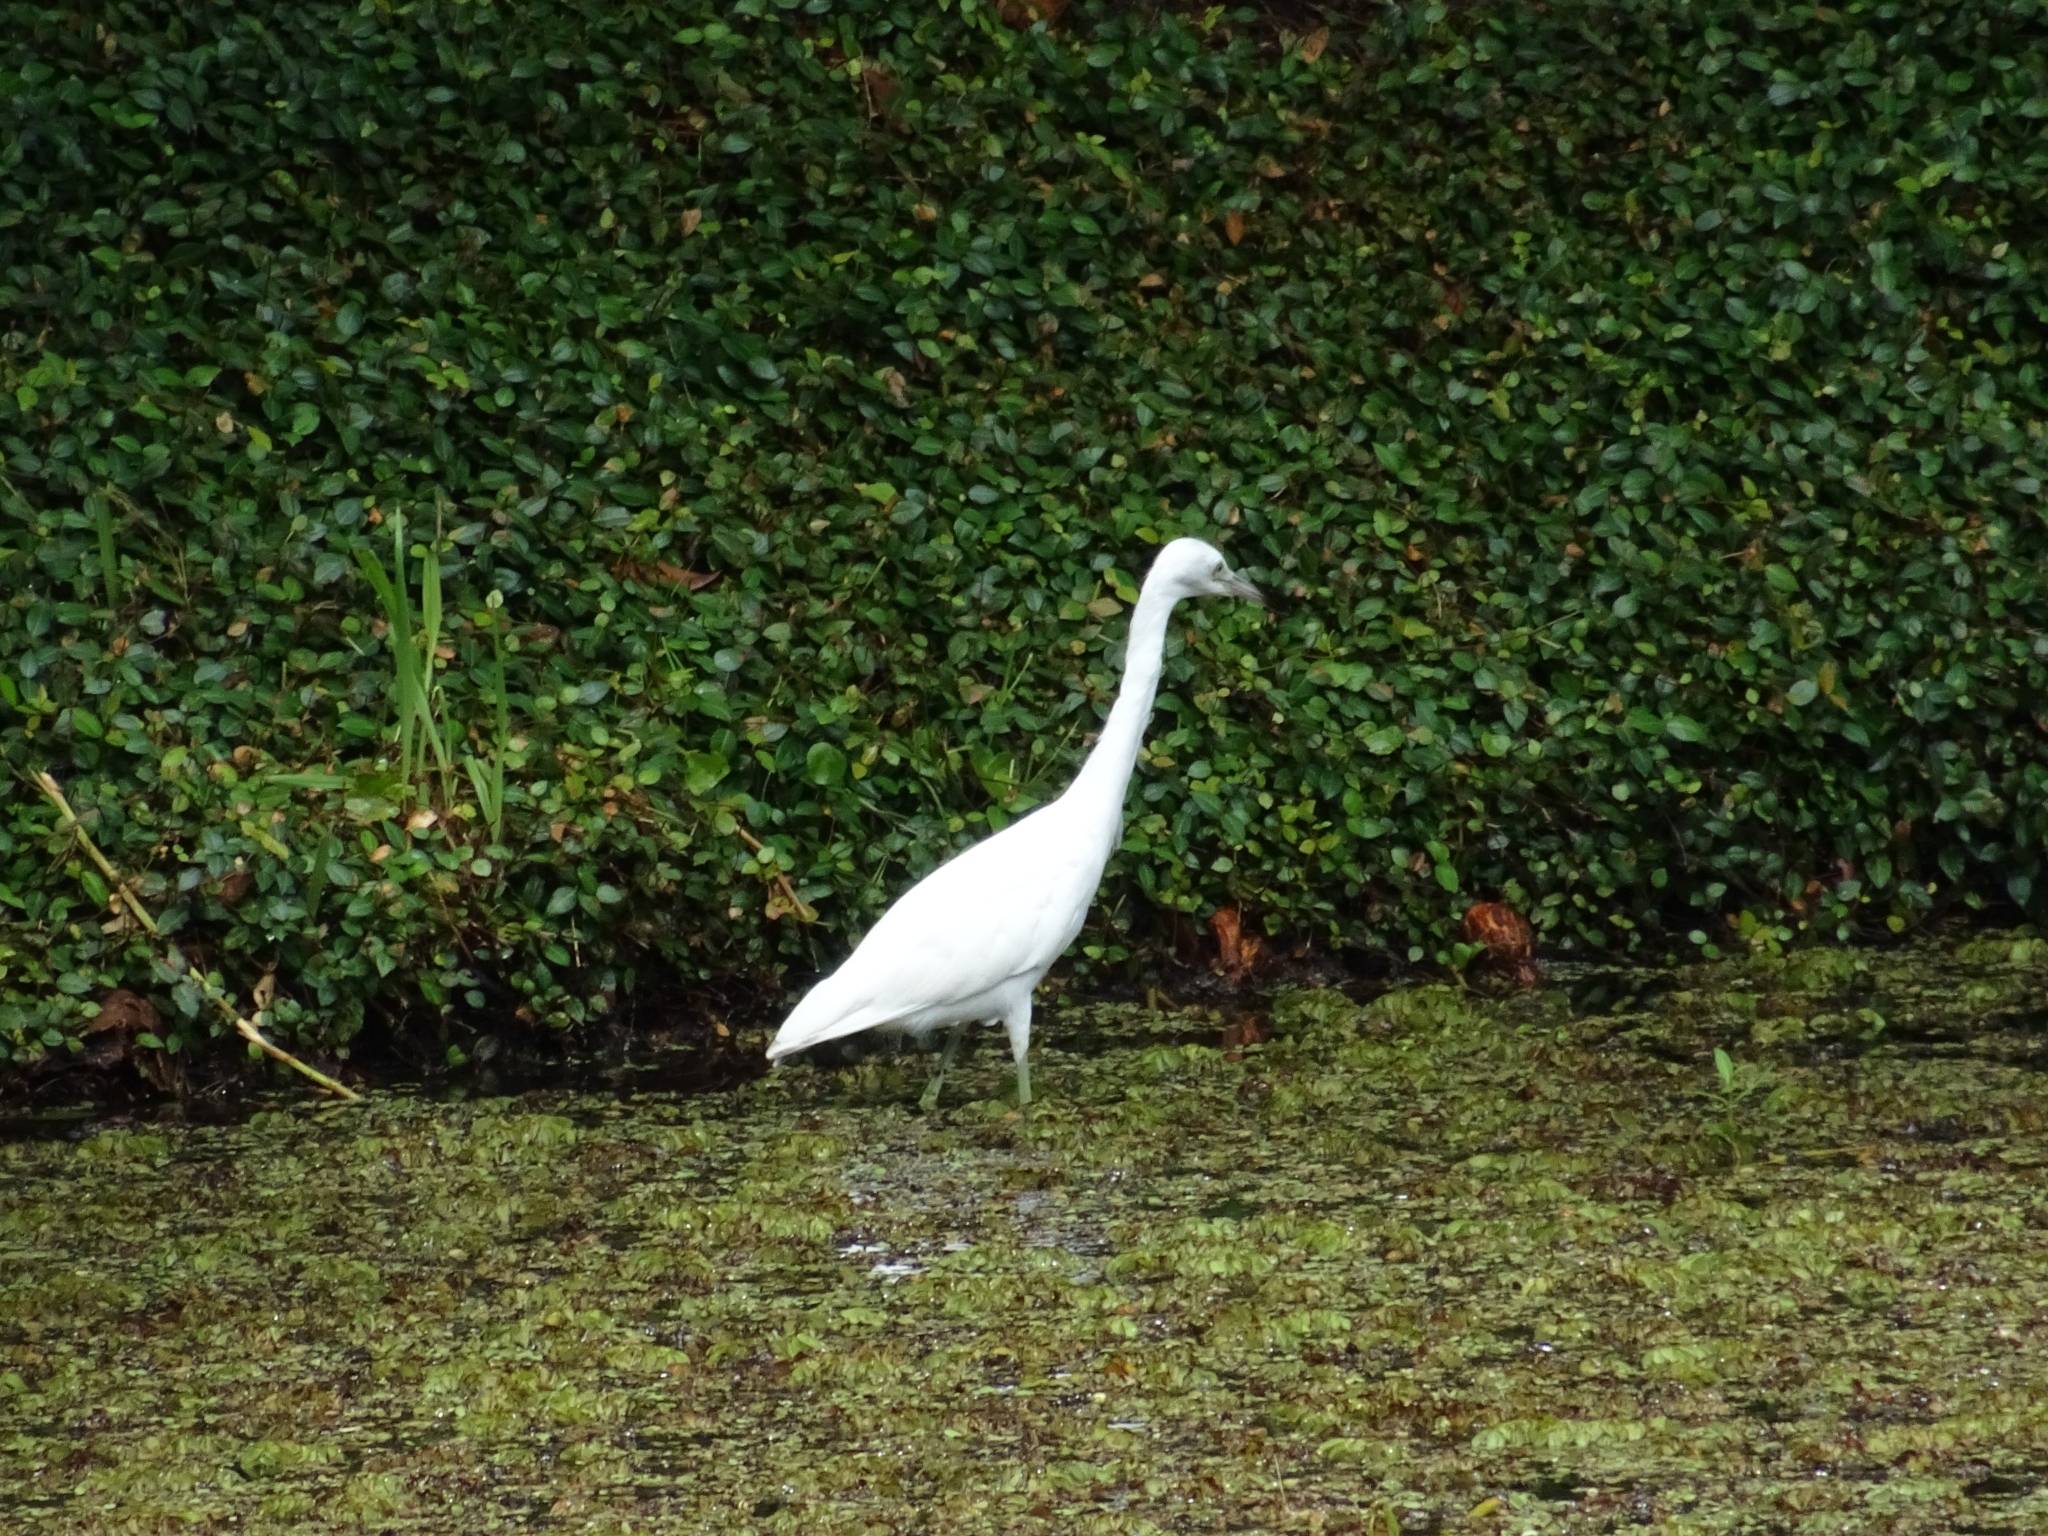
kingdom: Animalia
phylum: Chordata
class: Aves
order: Pelecaniformes
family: Ardeidae
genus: Egretta
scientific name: Egretta caerulea
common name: Little blue heron
